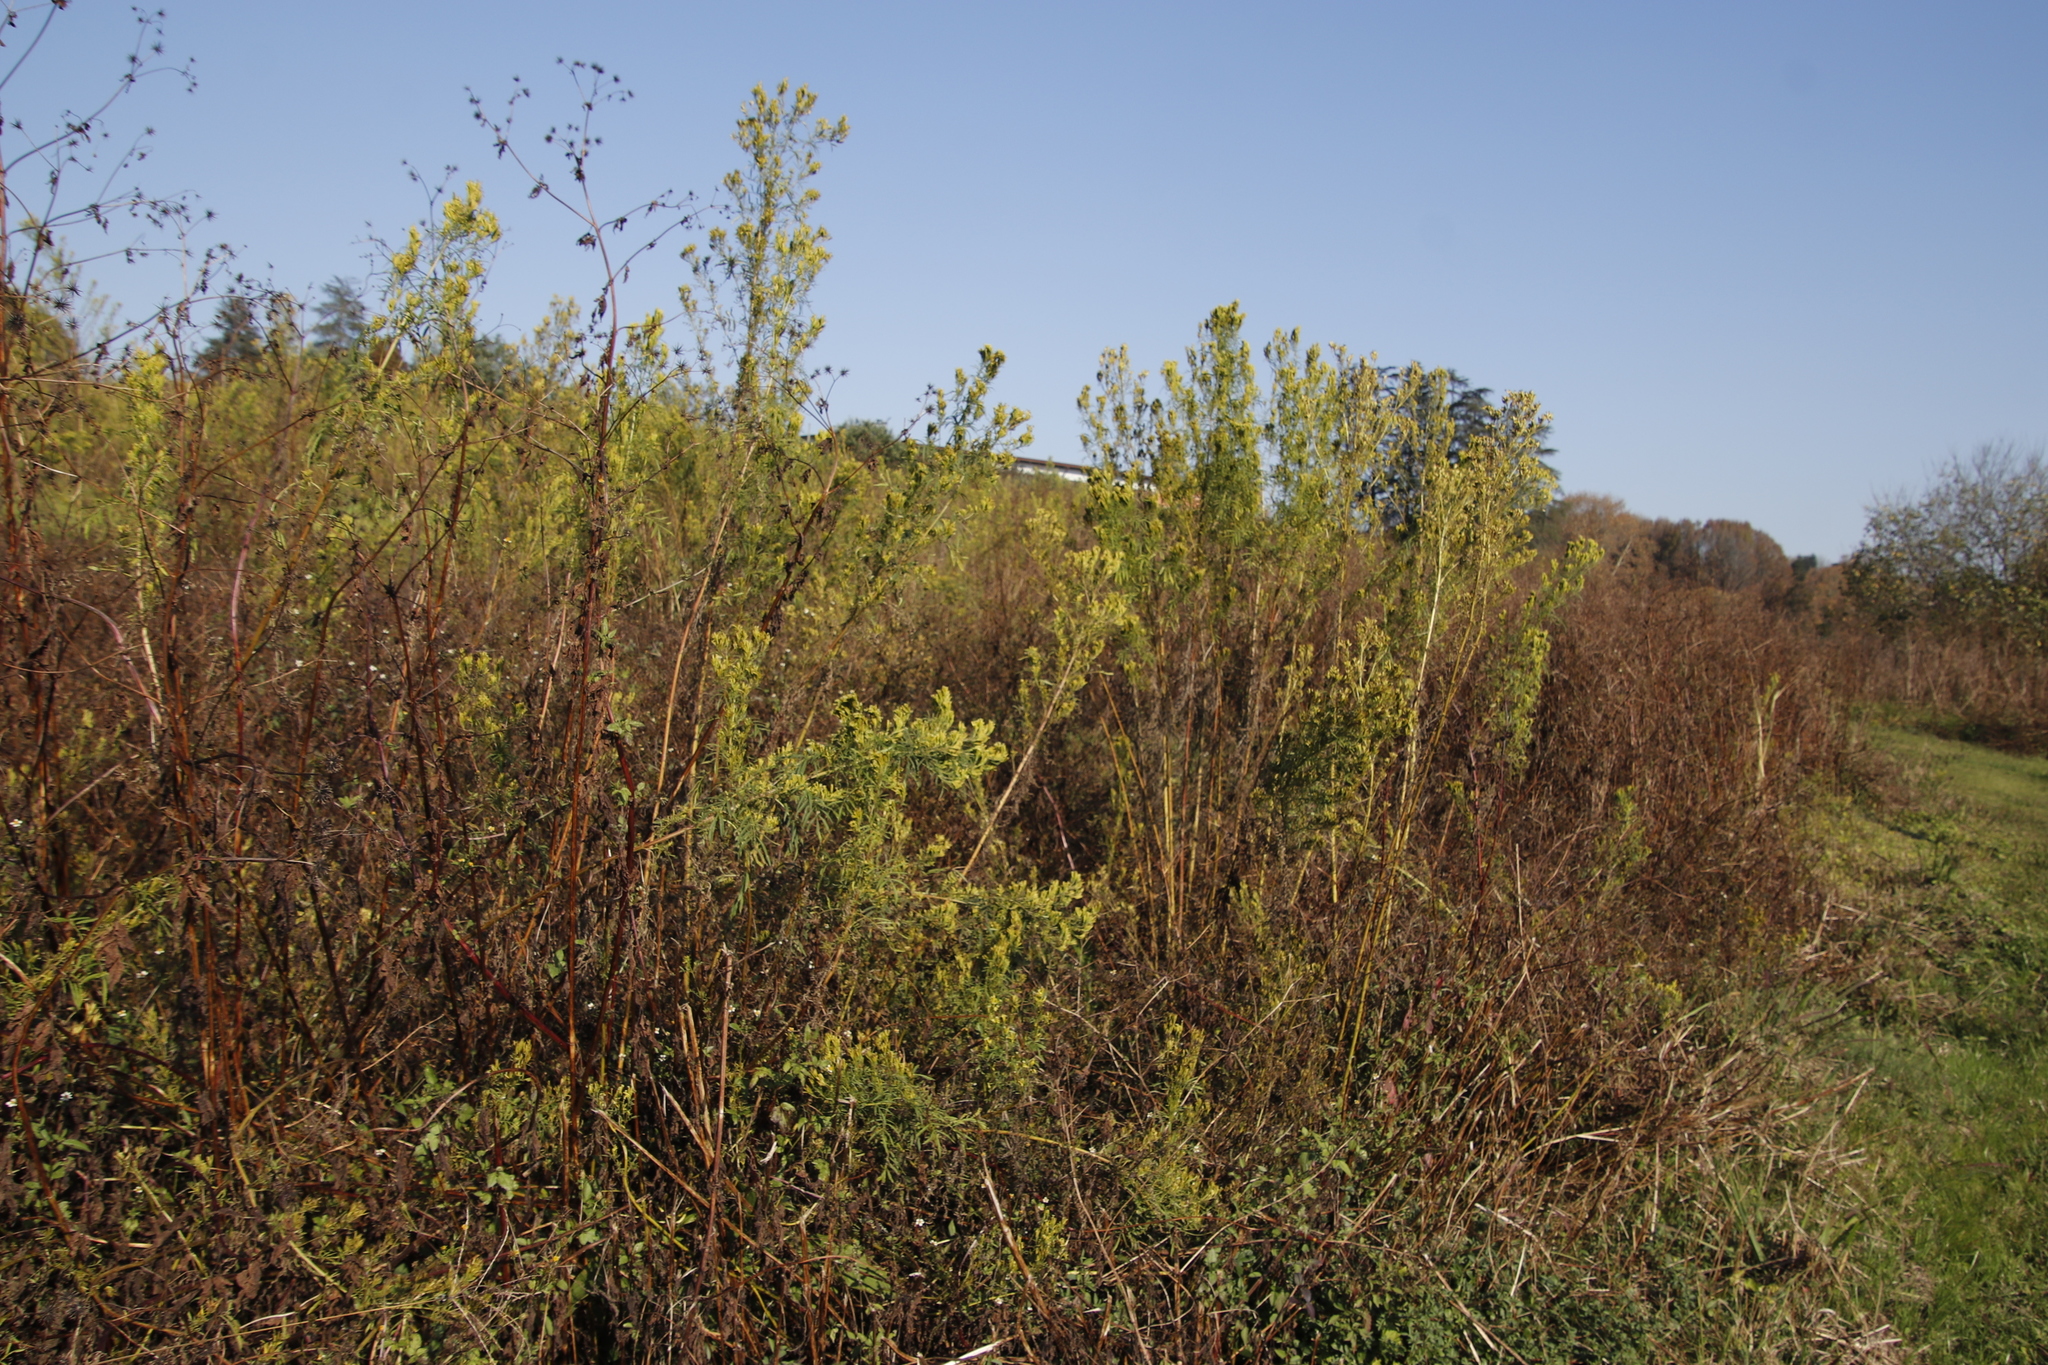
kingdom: Plantae
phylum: Tracheophyta
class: Magnoliopsida
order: Asterales
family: Asteraceae
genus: Tagetes
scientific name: Tagetes minuta
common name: Muster john henry
